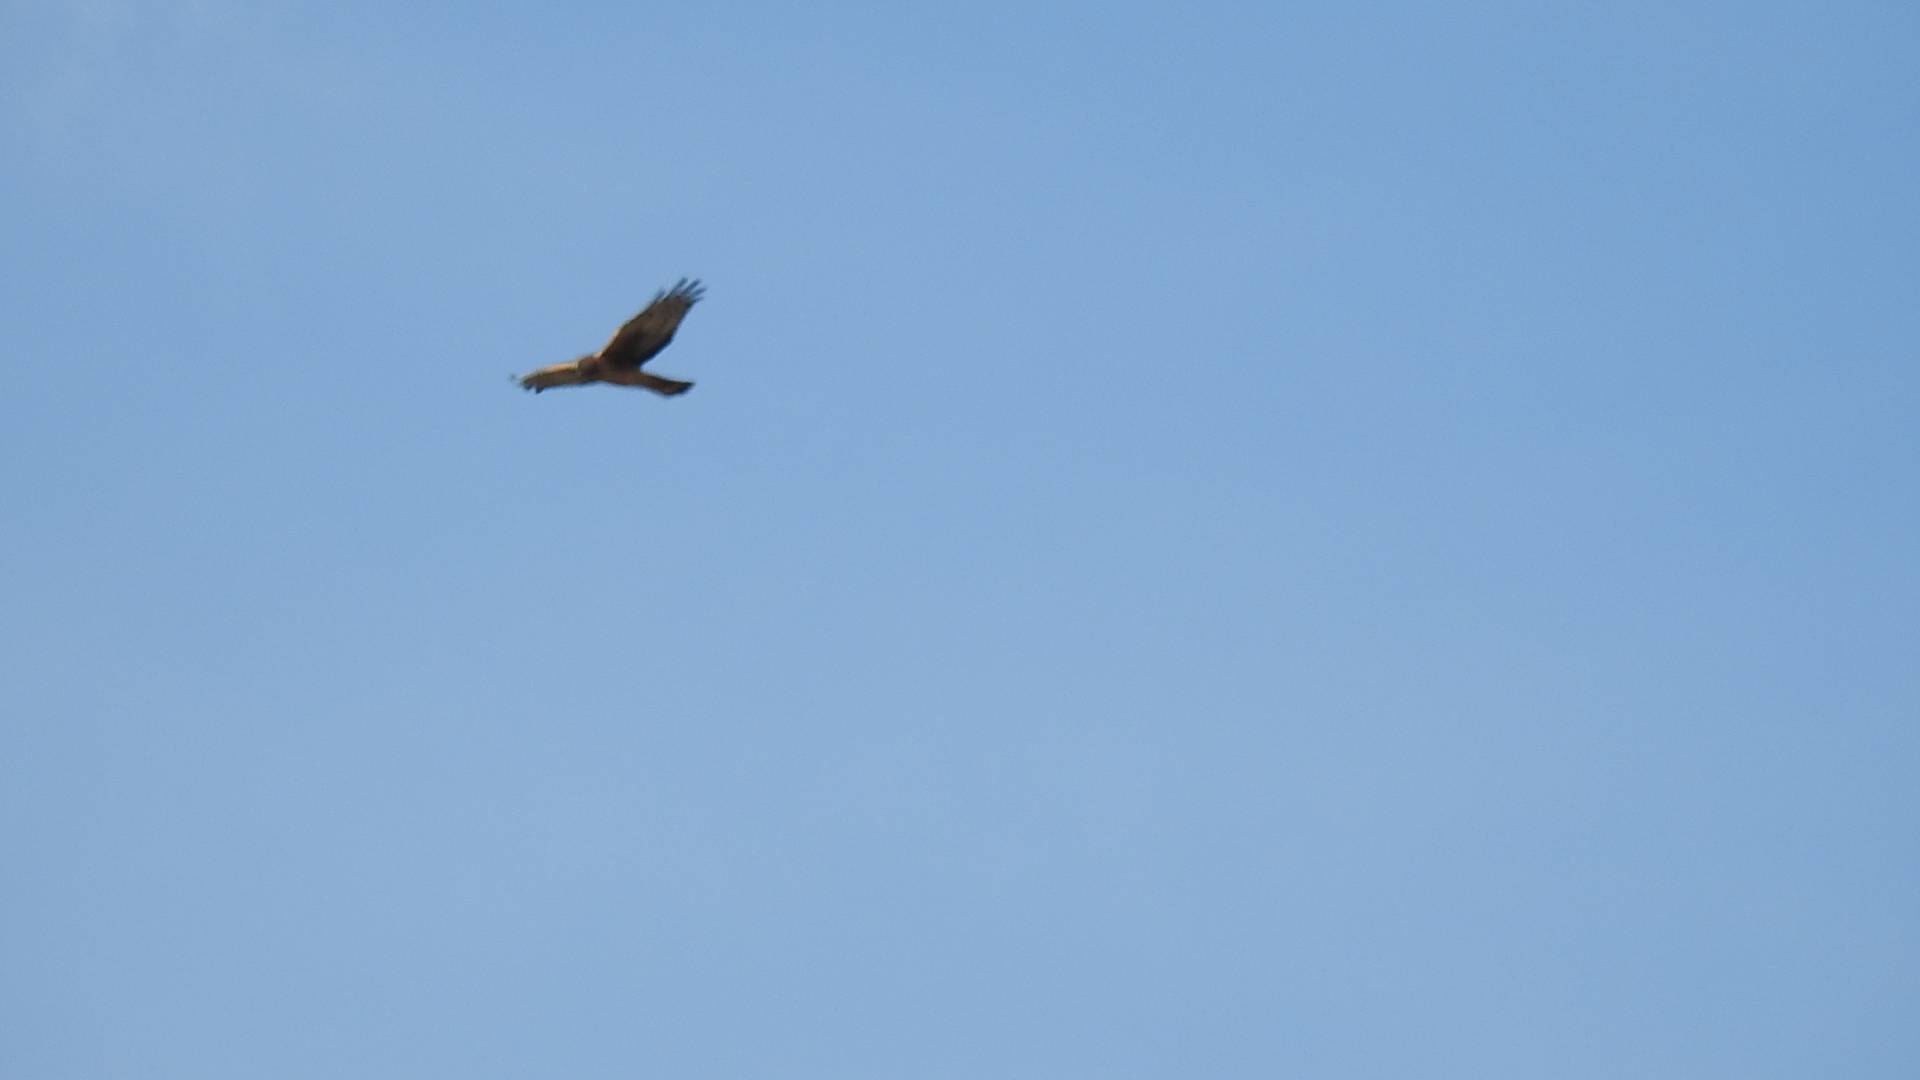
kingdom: Animalia
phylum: Chordata
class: Aves
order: Accipitriformes
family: Accipitridae
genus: Circus
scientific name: Circus cyaneus
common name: Hen harrier
